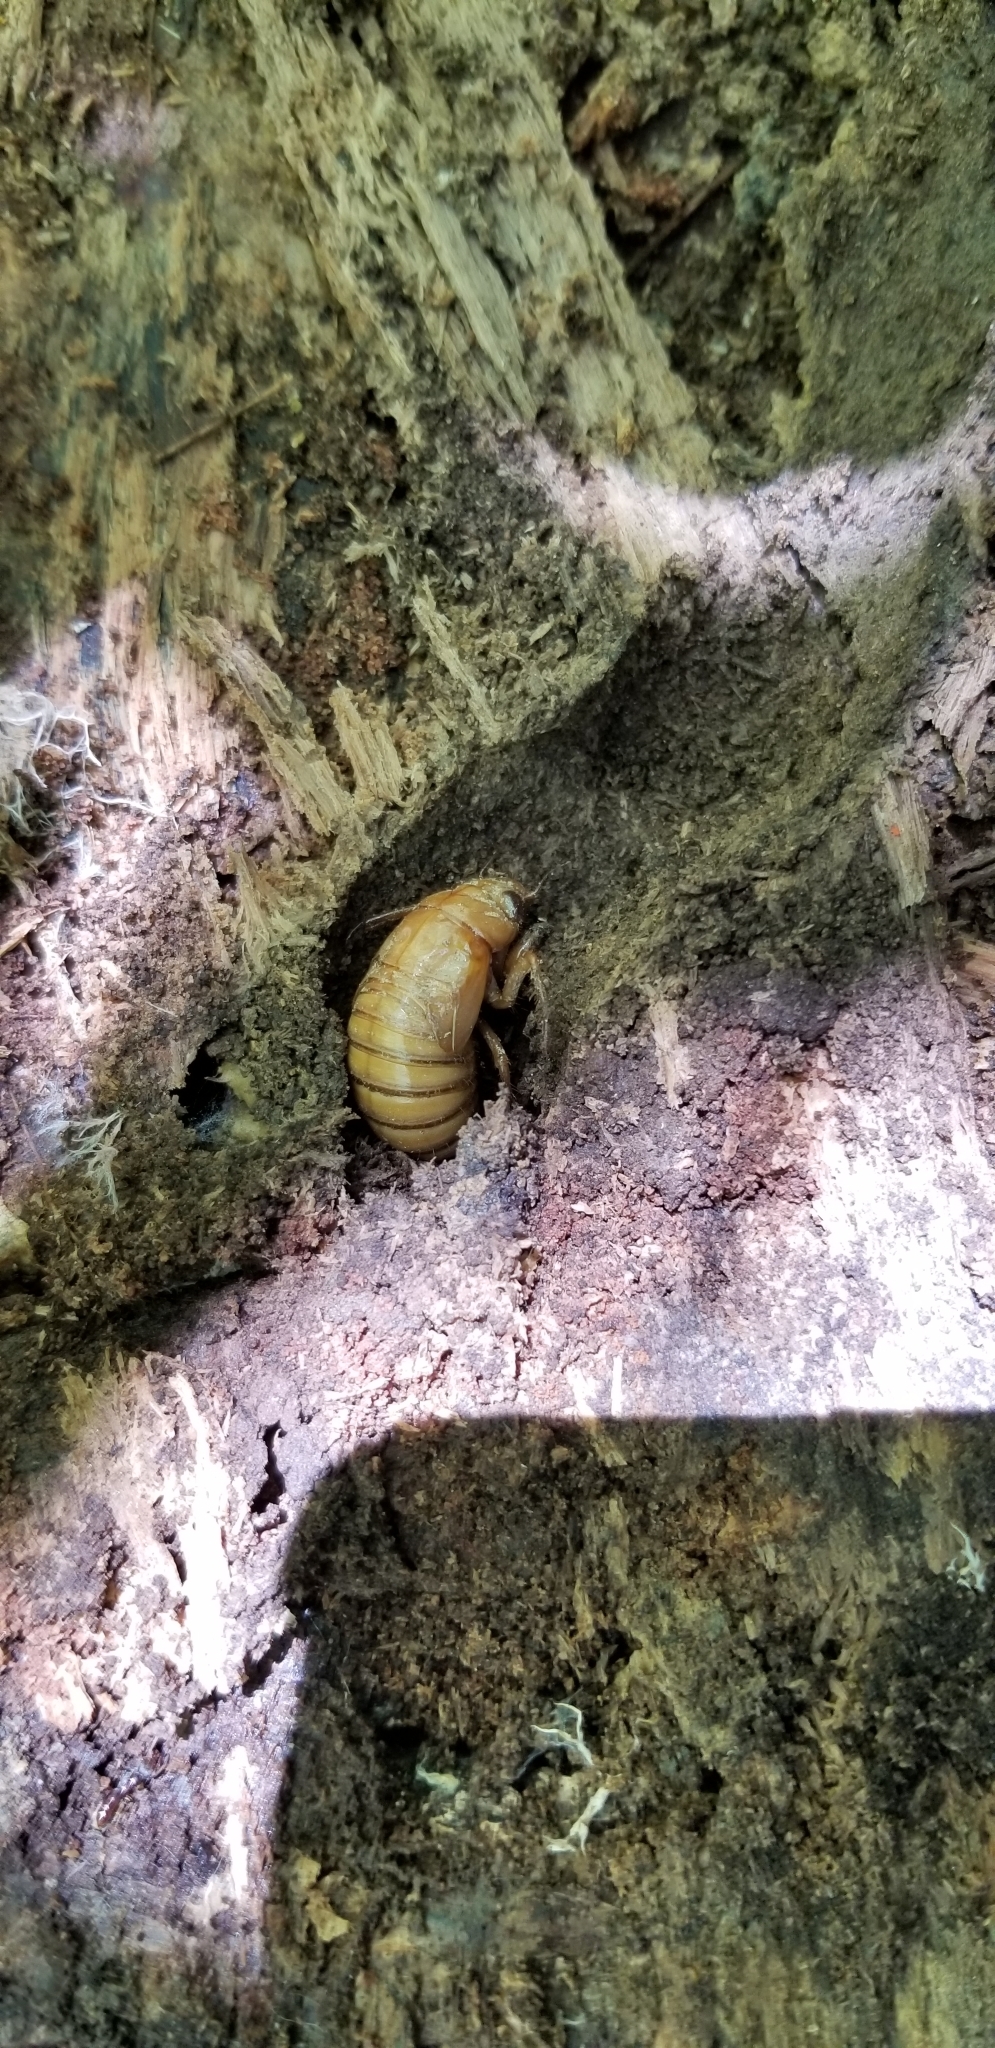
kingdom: Animalia
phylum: Arthropoda
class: Insecta
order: Hemiptera
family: Cicadidae
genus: Magicicada
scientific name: Magicicada
